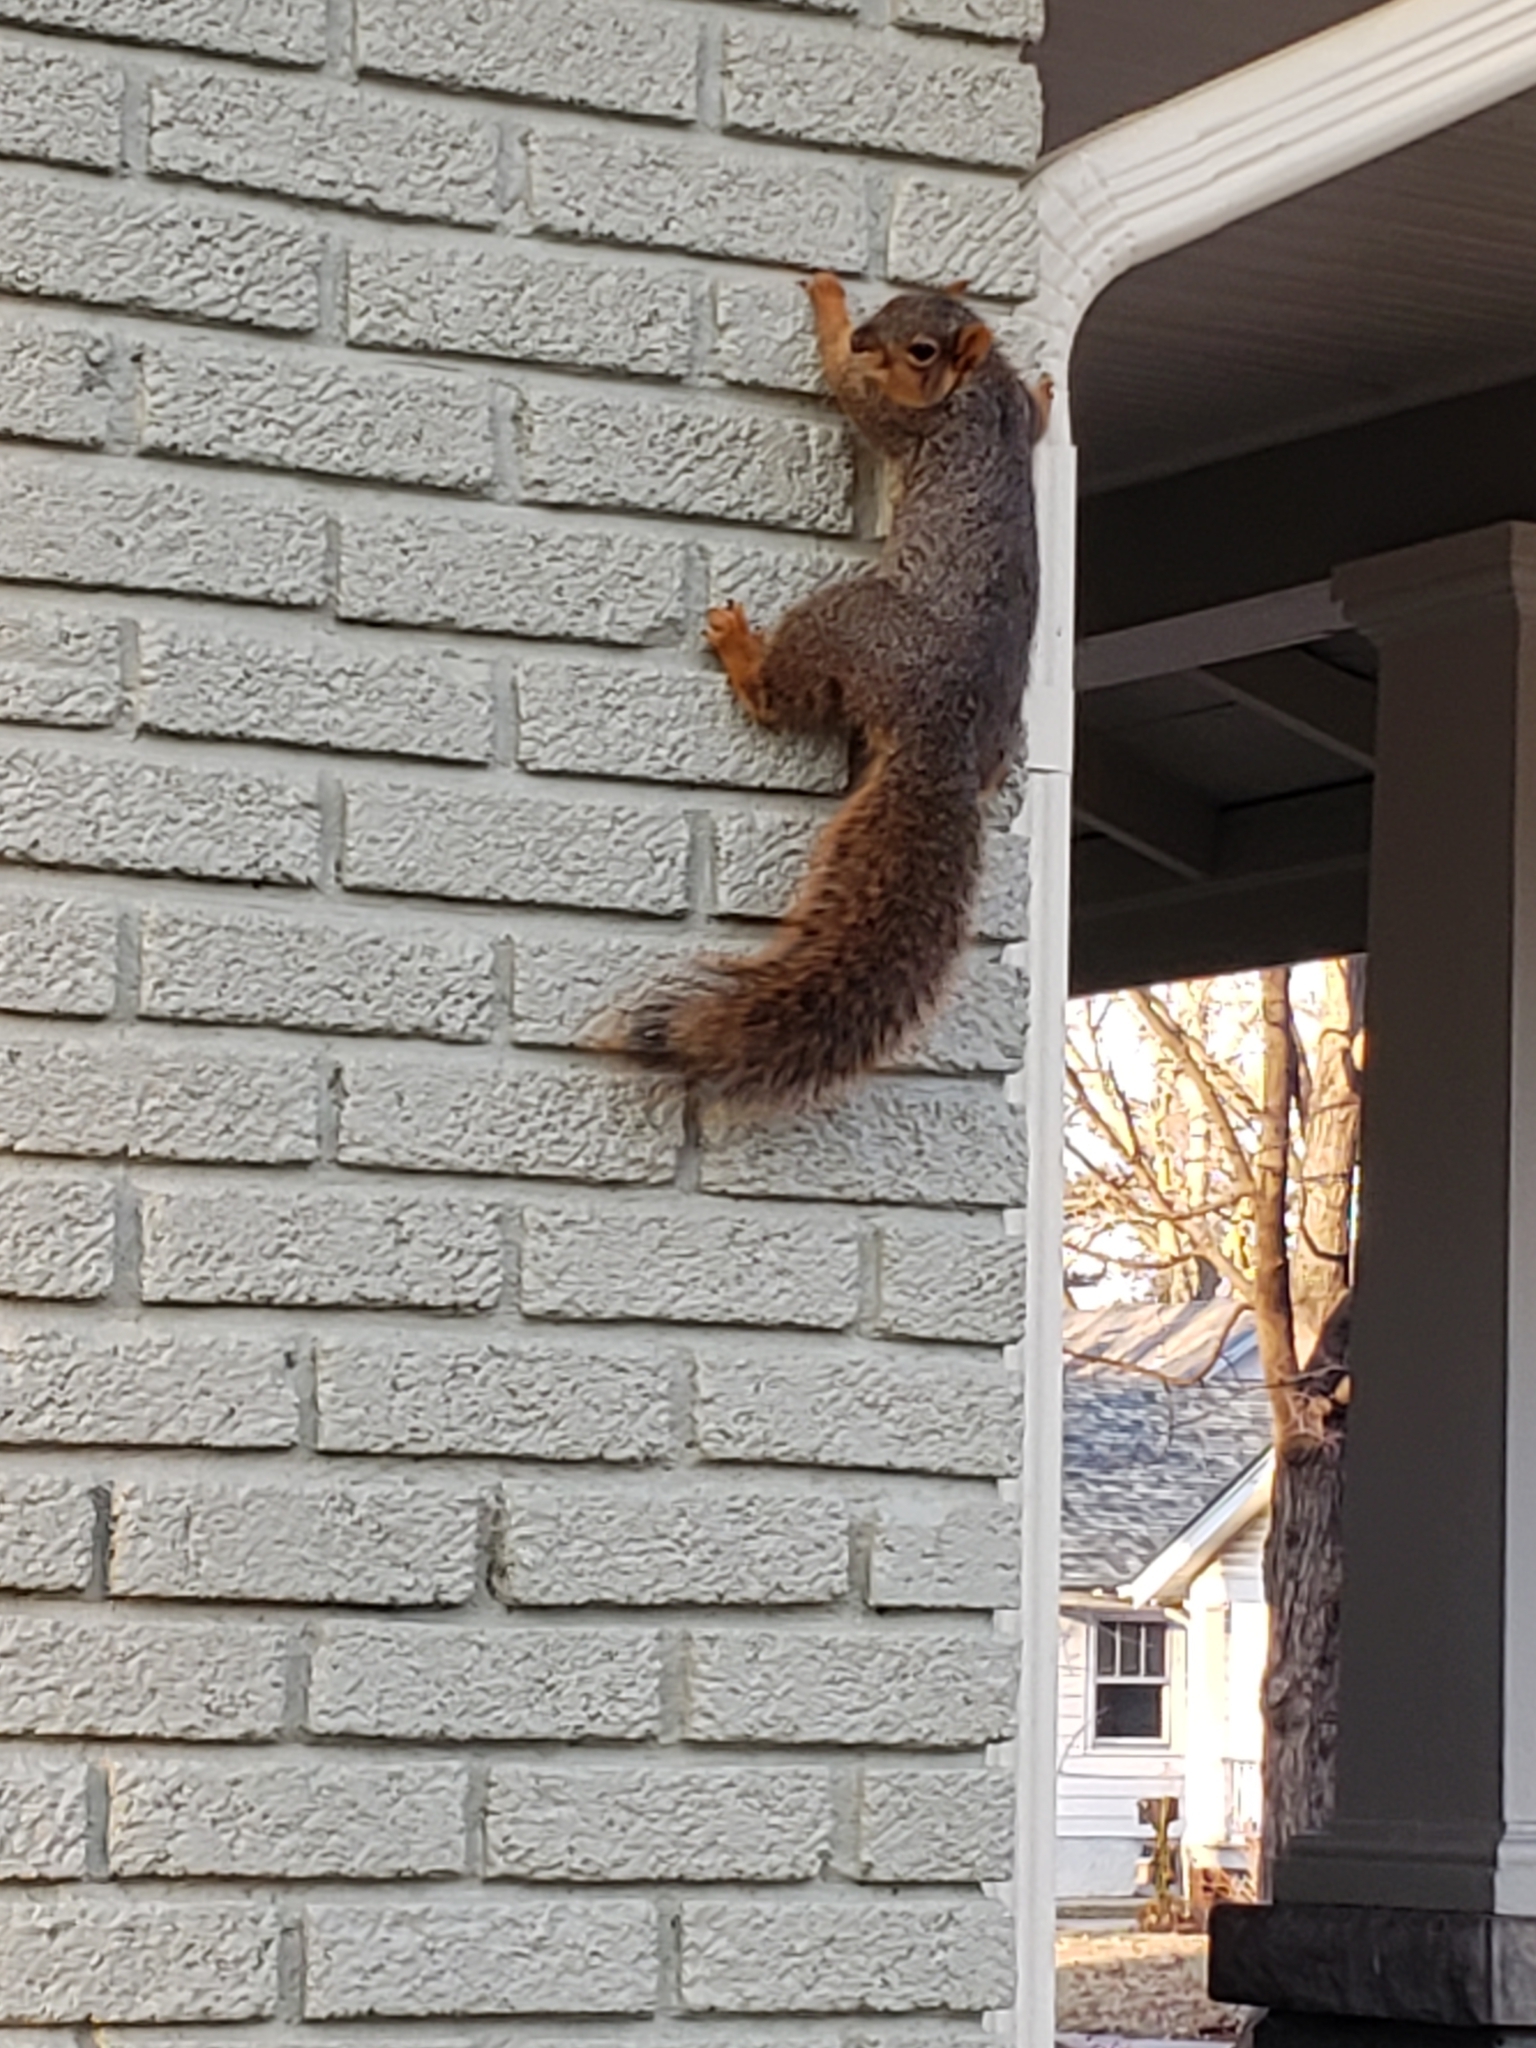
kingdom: Animalia
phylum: Chordata
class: Mammalia
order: Rodentia
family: Sciuridae
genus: Sciurus
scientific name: Sciurus niger
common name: Fox squirrel
